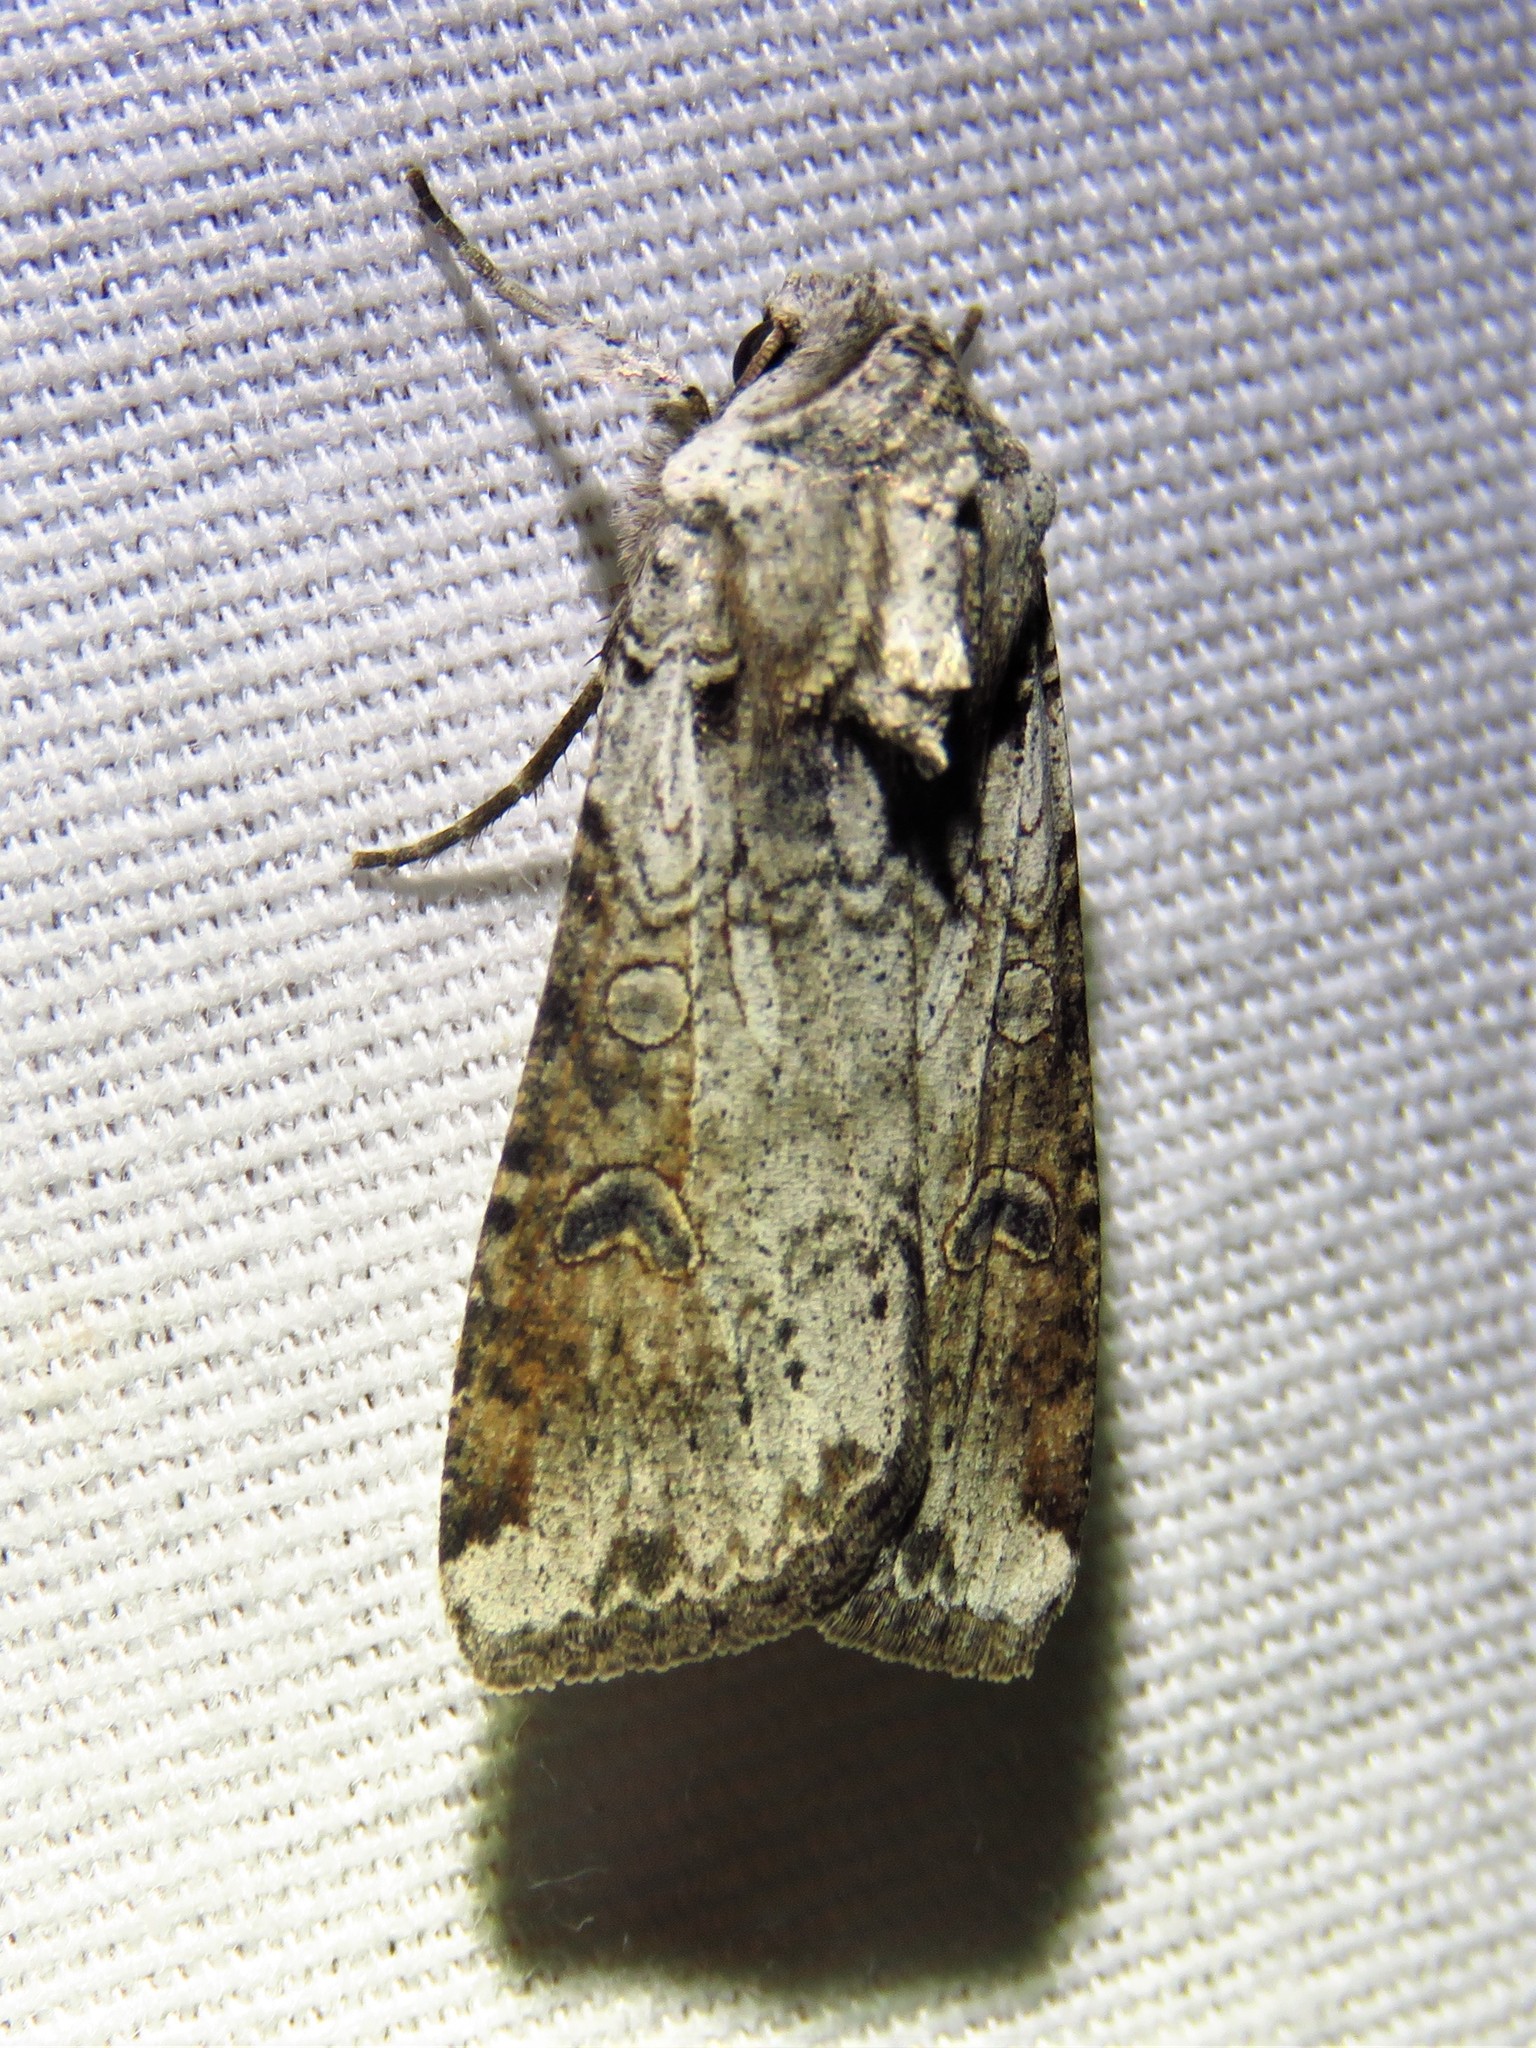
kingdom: Animalia
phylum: Arthropoda
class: Insecta
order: Lepidoptera
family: Noctuidae
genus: Hemieuxoa
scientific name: Hemieuxoa rudens
